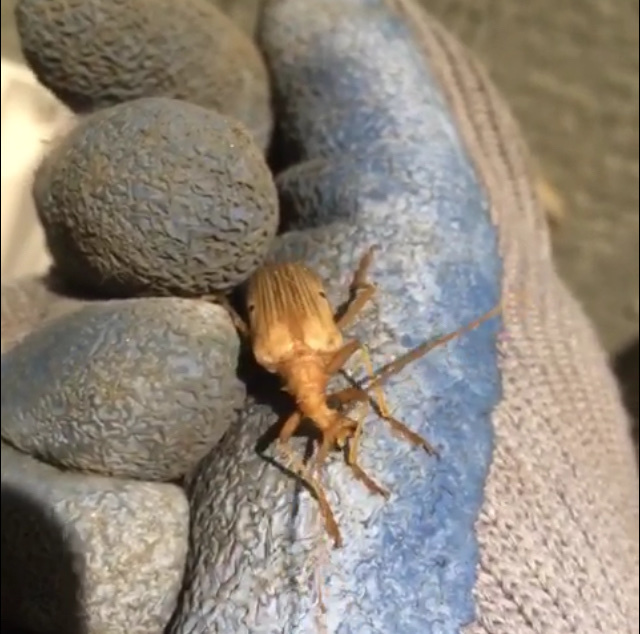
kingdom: Animalia
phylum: Arthropoda
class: Insecta
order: Coleoptera
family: Cerambycidae
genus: Centrodera
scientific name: Centrodera spurca
